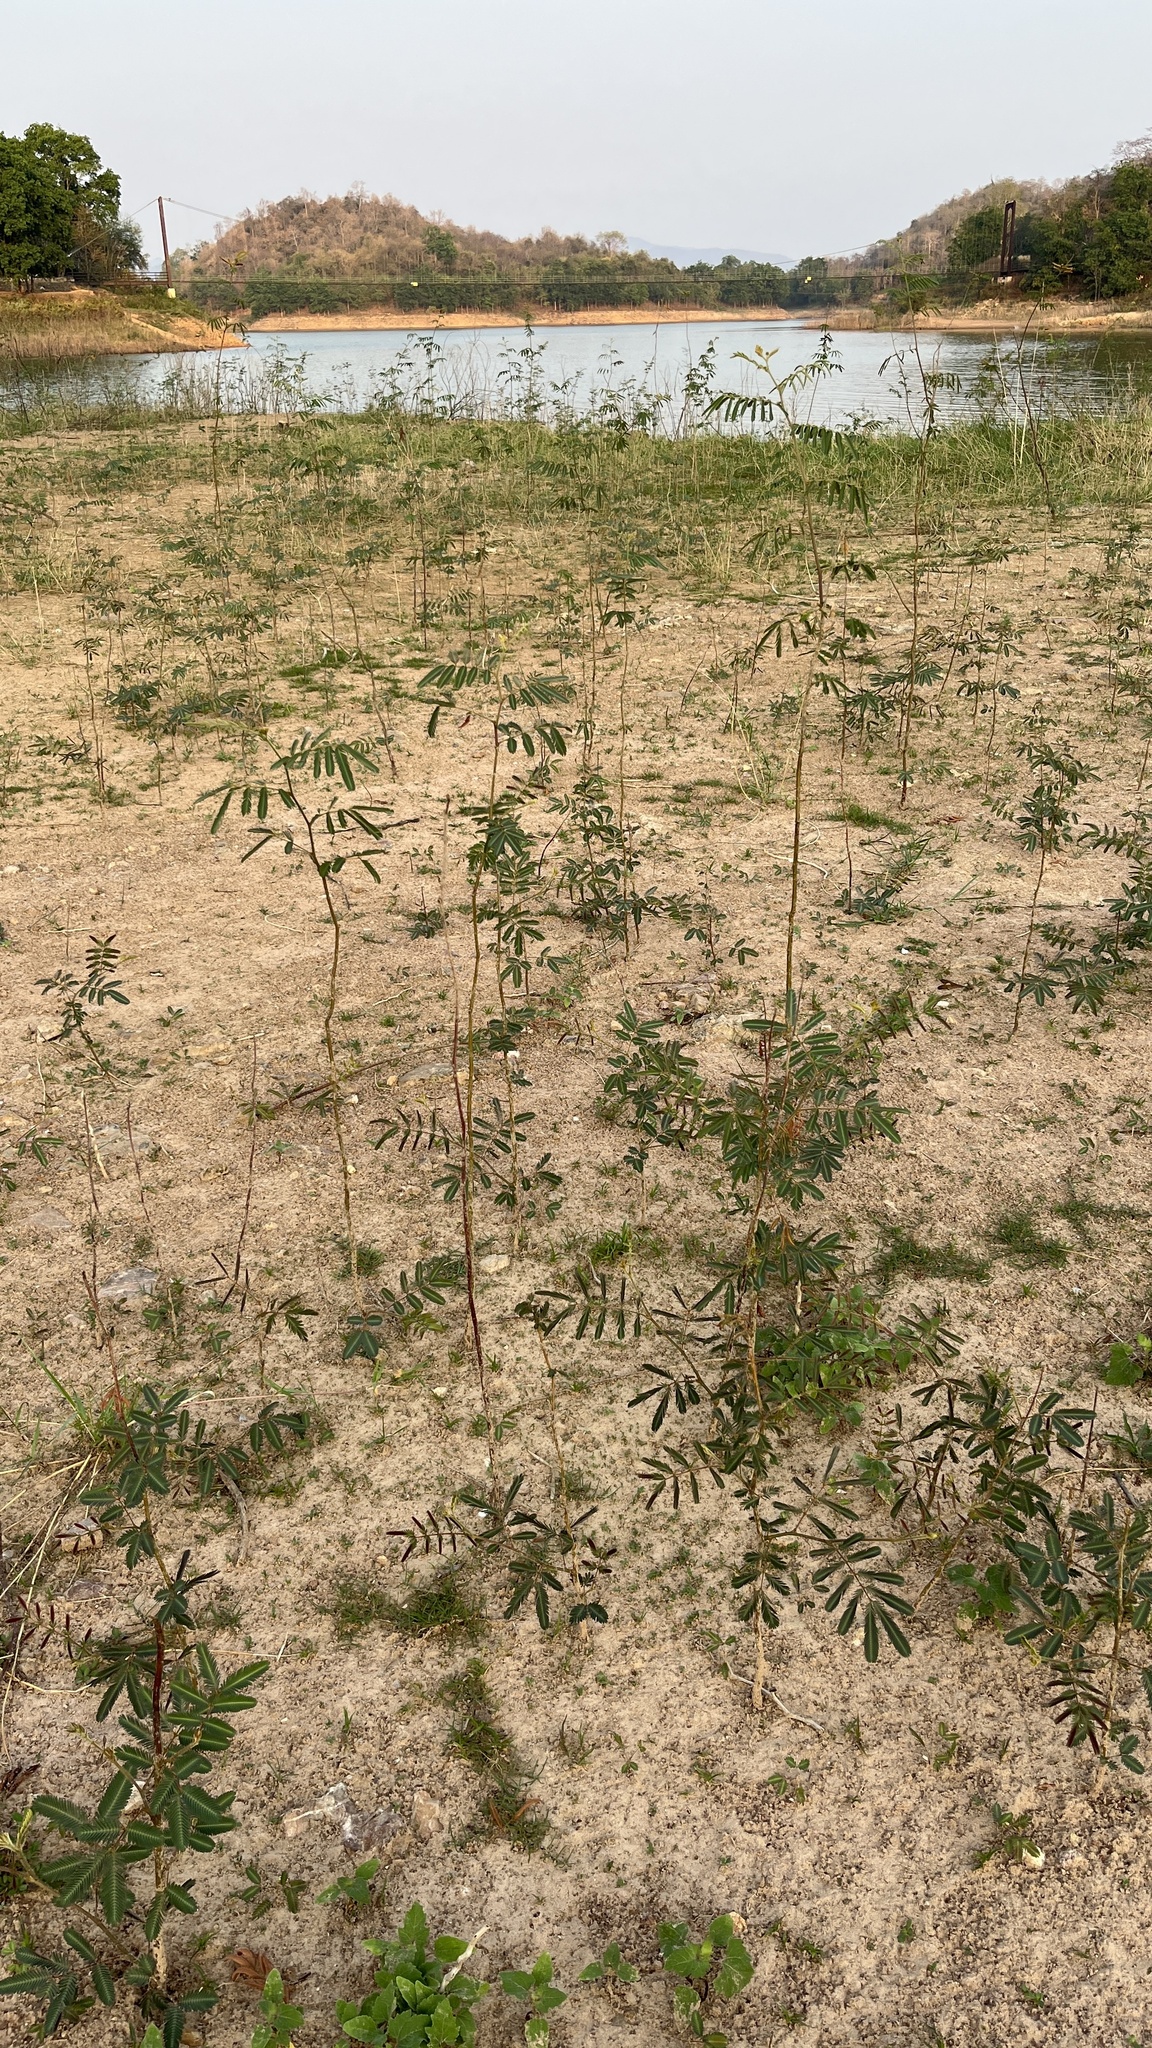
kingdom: Plantae
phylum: Tracheophyta
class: Magnoliopsida
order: Fabales
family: Fabaceae
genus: Neptunia
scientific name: Neptunia plena
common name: Dead and awake
